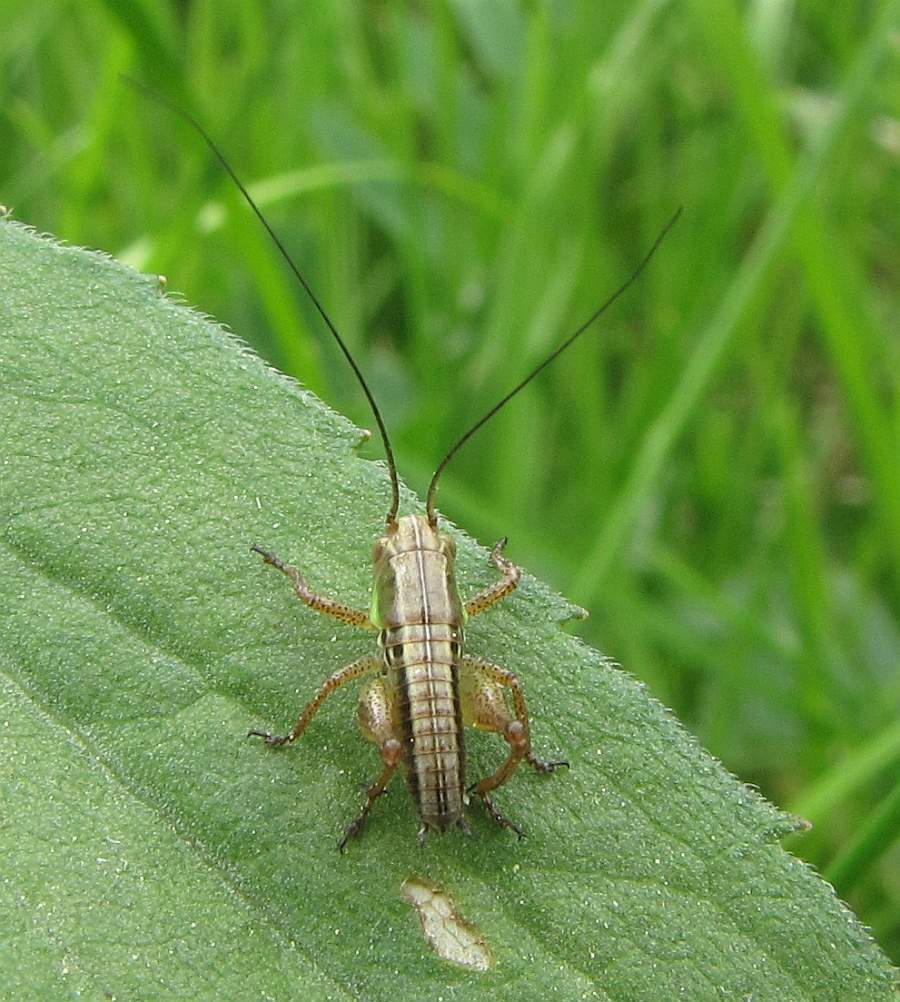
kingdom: Animalia
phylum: Arthropoda
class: Insecta
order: Orthoptera
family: Tettigoniidae
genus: Roeseliana
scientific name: Roeseliana roeselii
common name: Roesel's bush cricket
